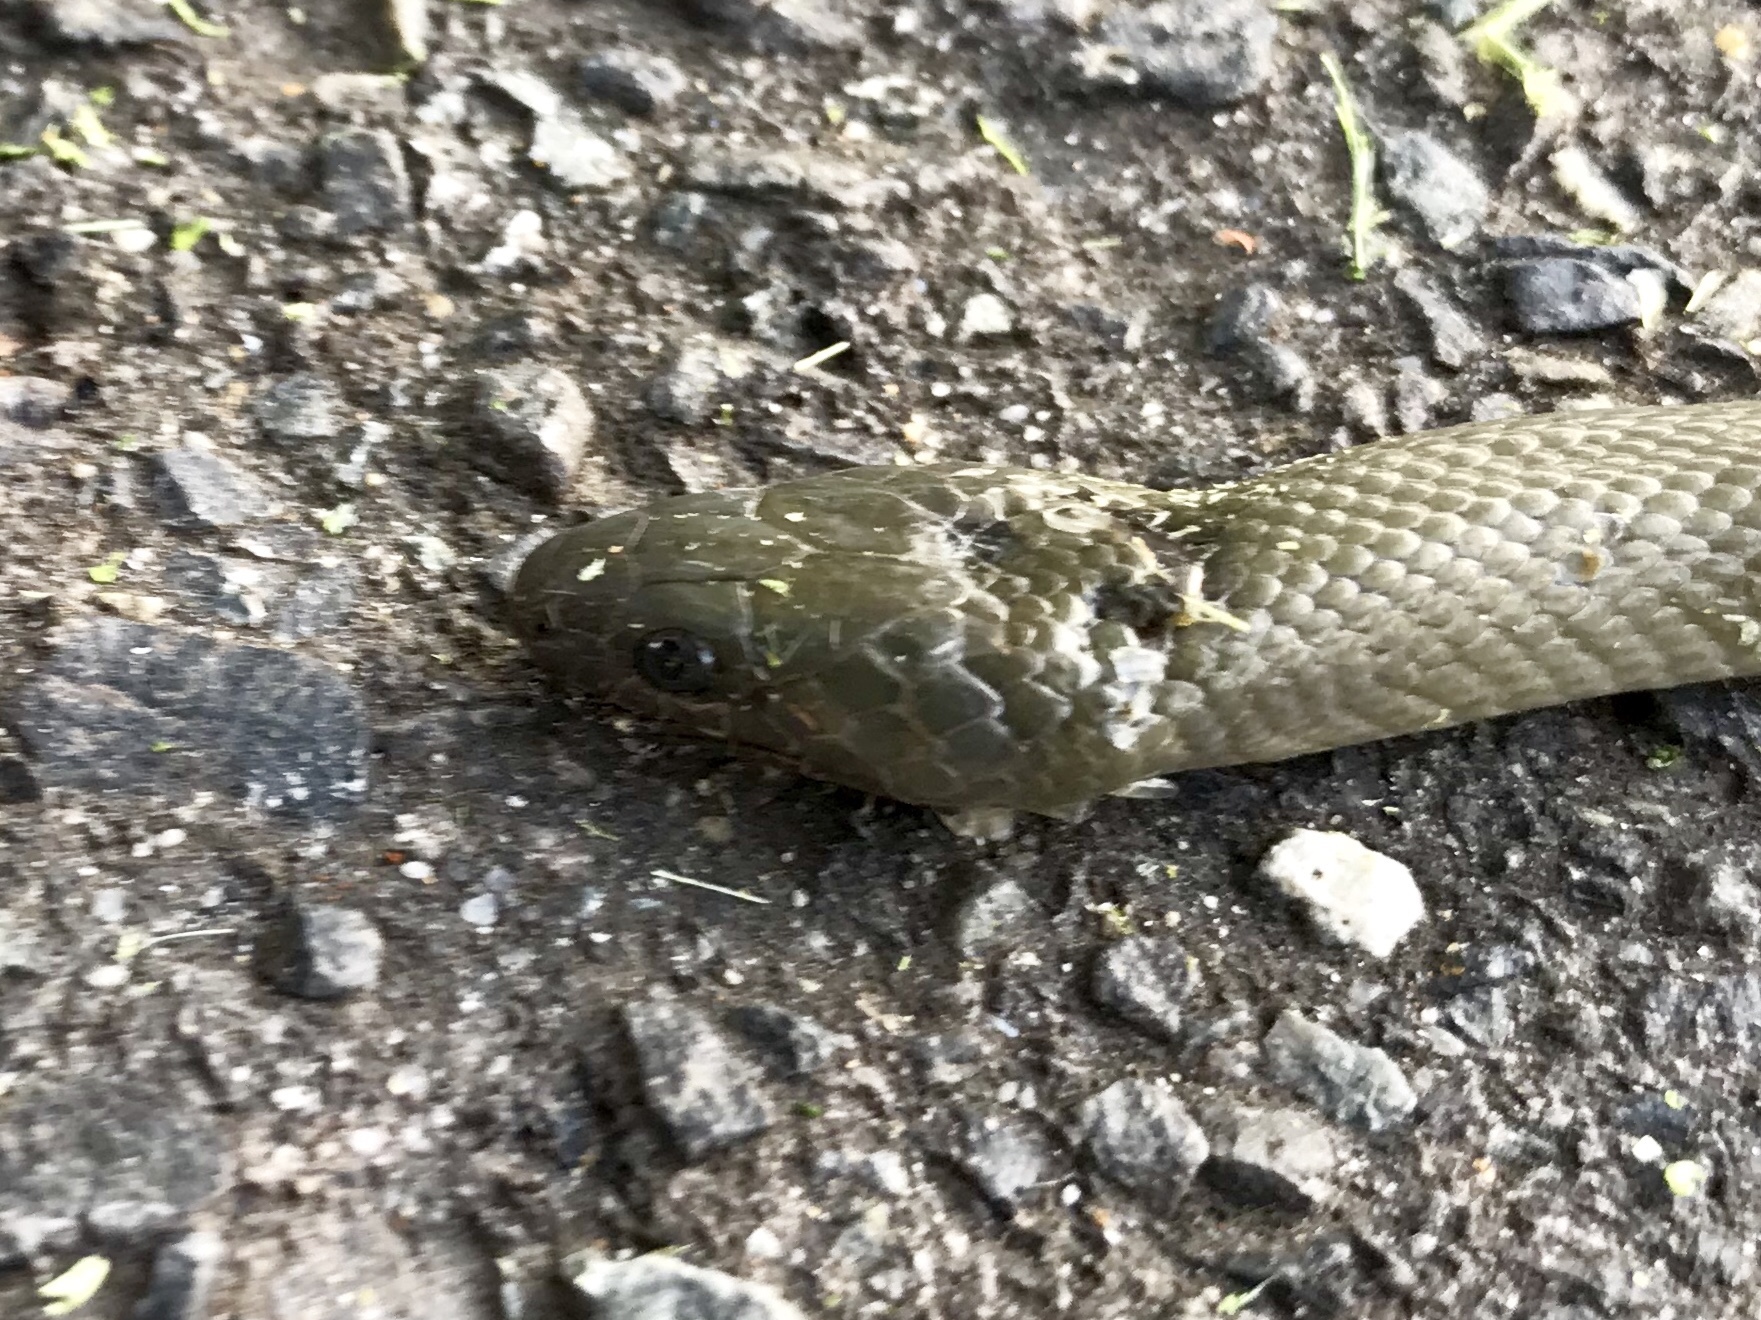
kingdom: Animalia
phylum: Chordata
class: Squamata
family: Lamprophiidae
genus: Lycodonomorphus
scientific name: Lycodonomorphus inornatus
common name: Black house snake
